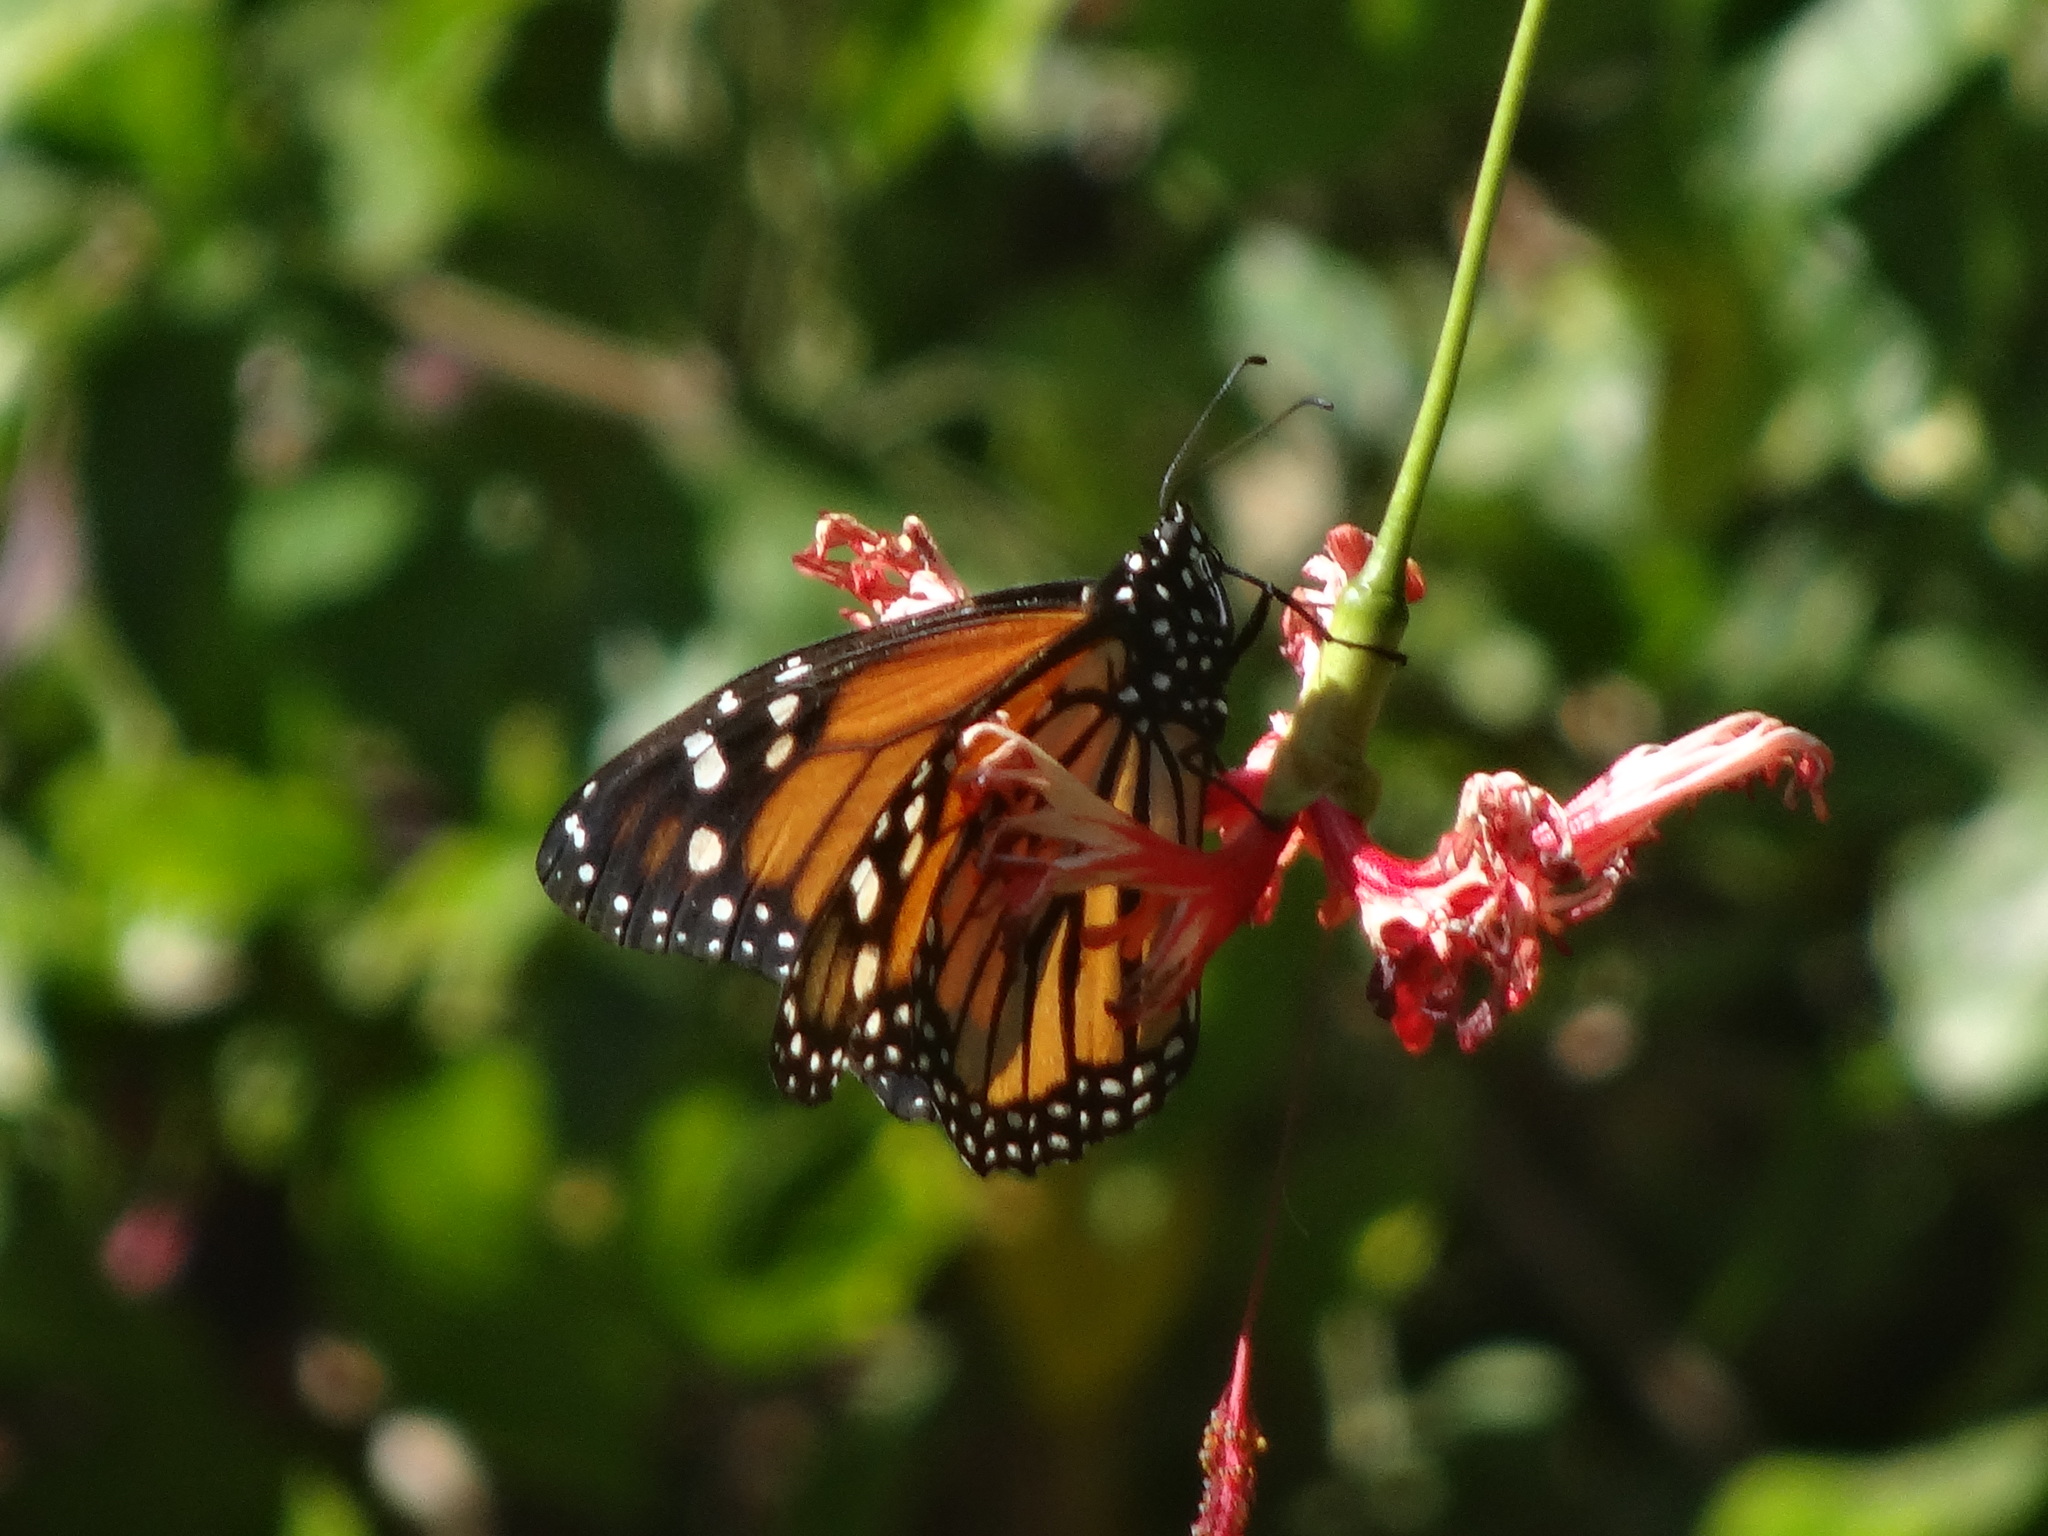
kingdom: Animalia
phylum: Arthropoda
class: Insecta
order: Lepidoptera
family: Nymphalidae
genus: Danaus
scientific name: Danaus plexippus
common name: Monarch
